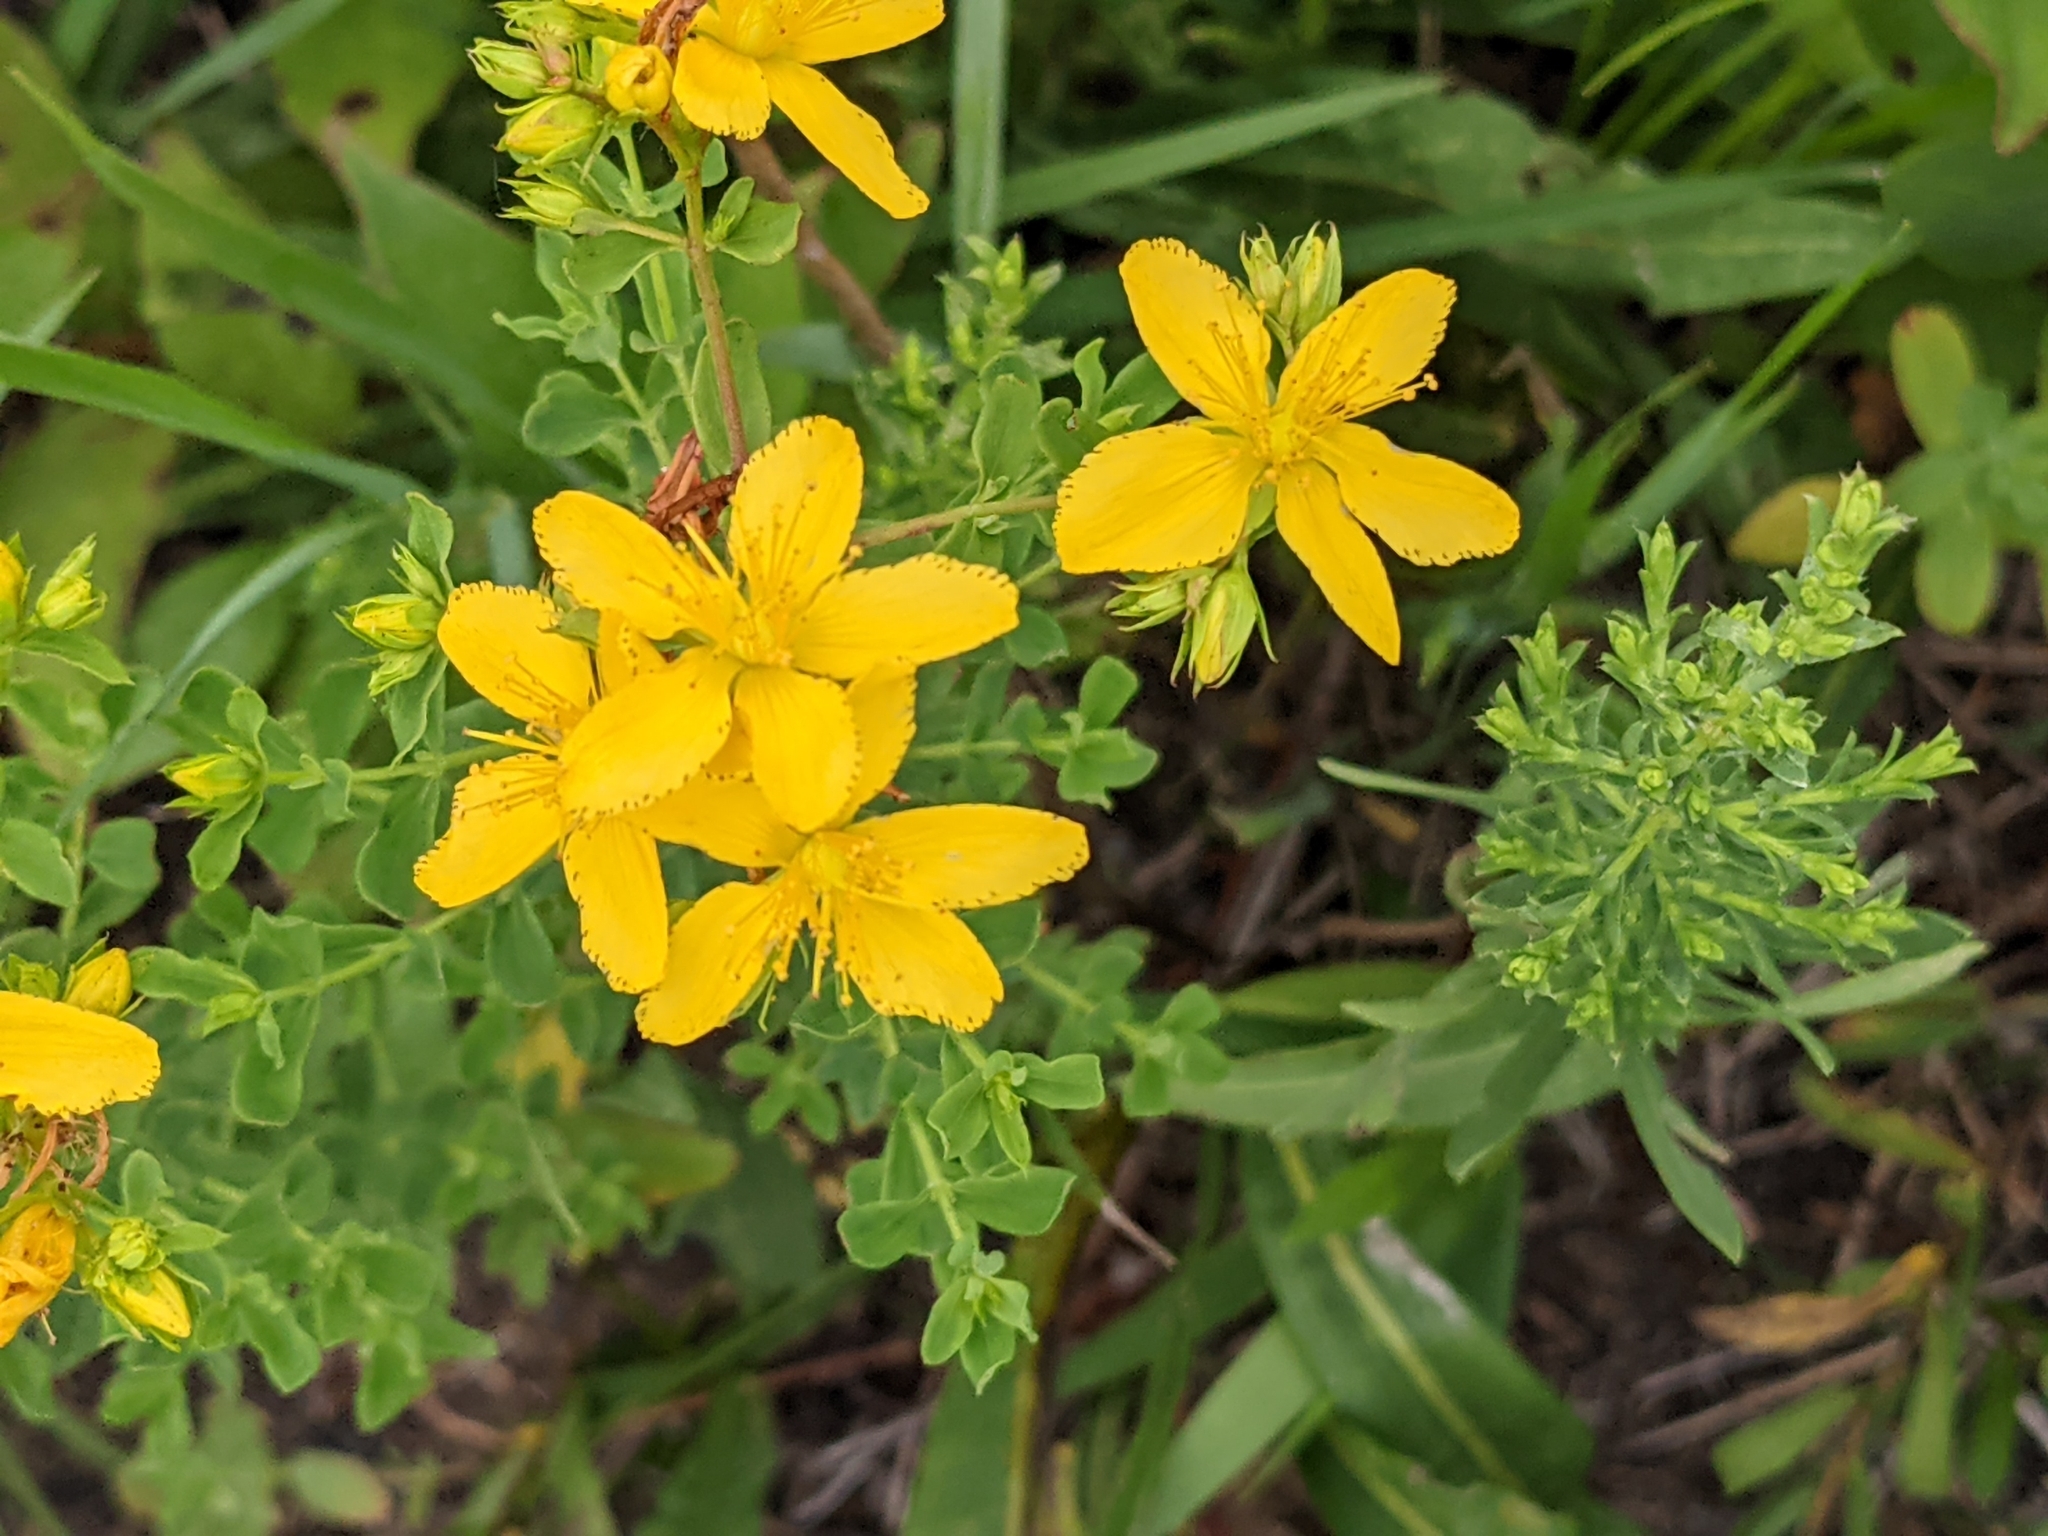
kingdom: Plantae
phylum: Tracheophyta
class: Magnoliopsida
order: Malpighiales
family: Hypericaceae
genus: Hypericum
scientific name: Hypericum perforatum
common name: Common st. johnswort
